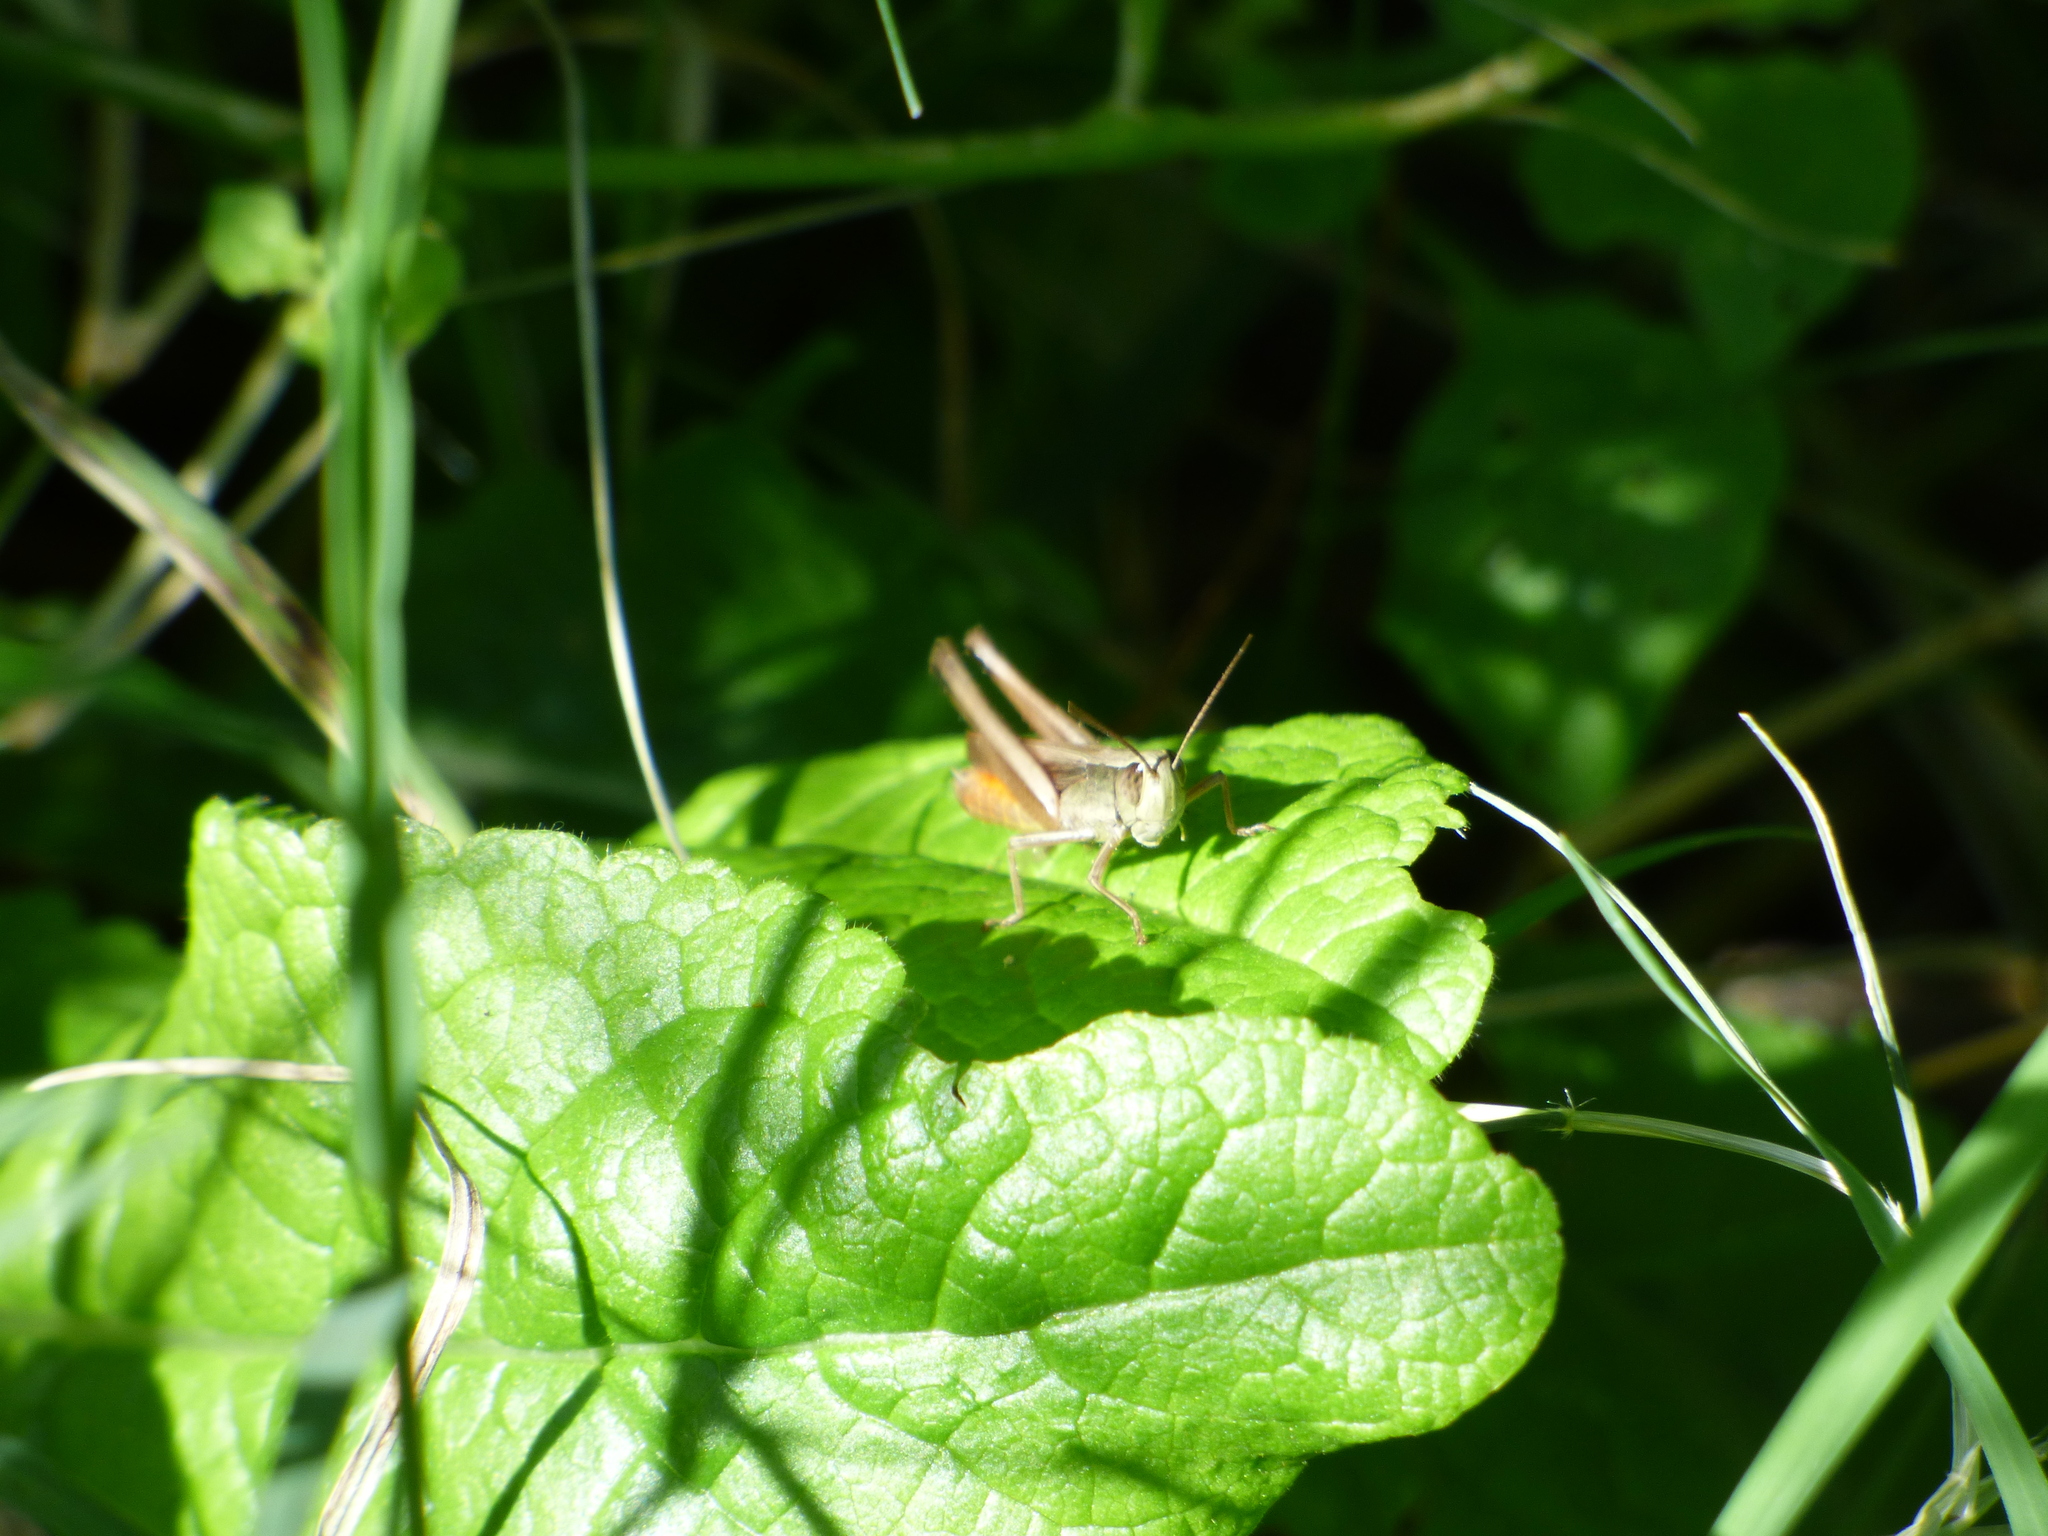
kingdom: Animalia
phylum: Arthropoda
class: Insecta
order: Orthoptera
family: Acrididae
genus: Amblytropidia
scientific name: Amblytropidia australis
